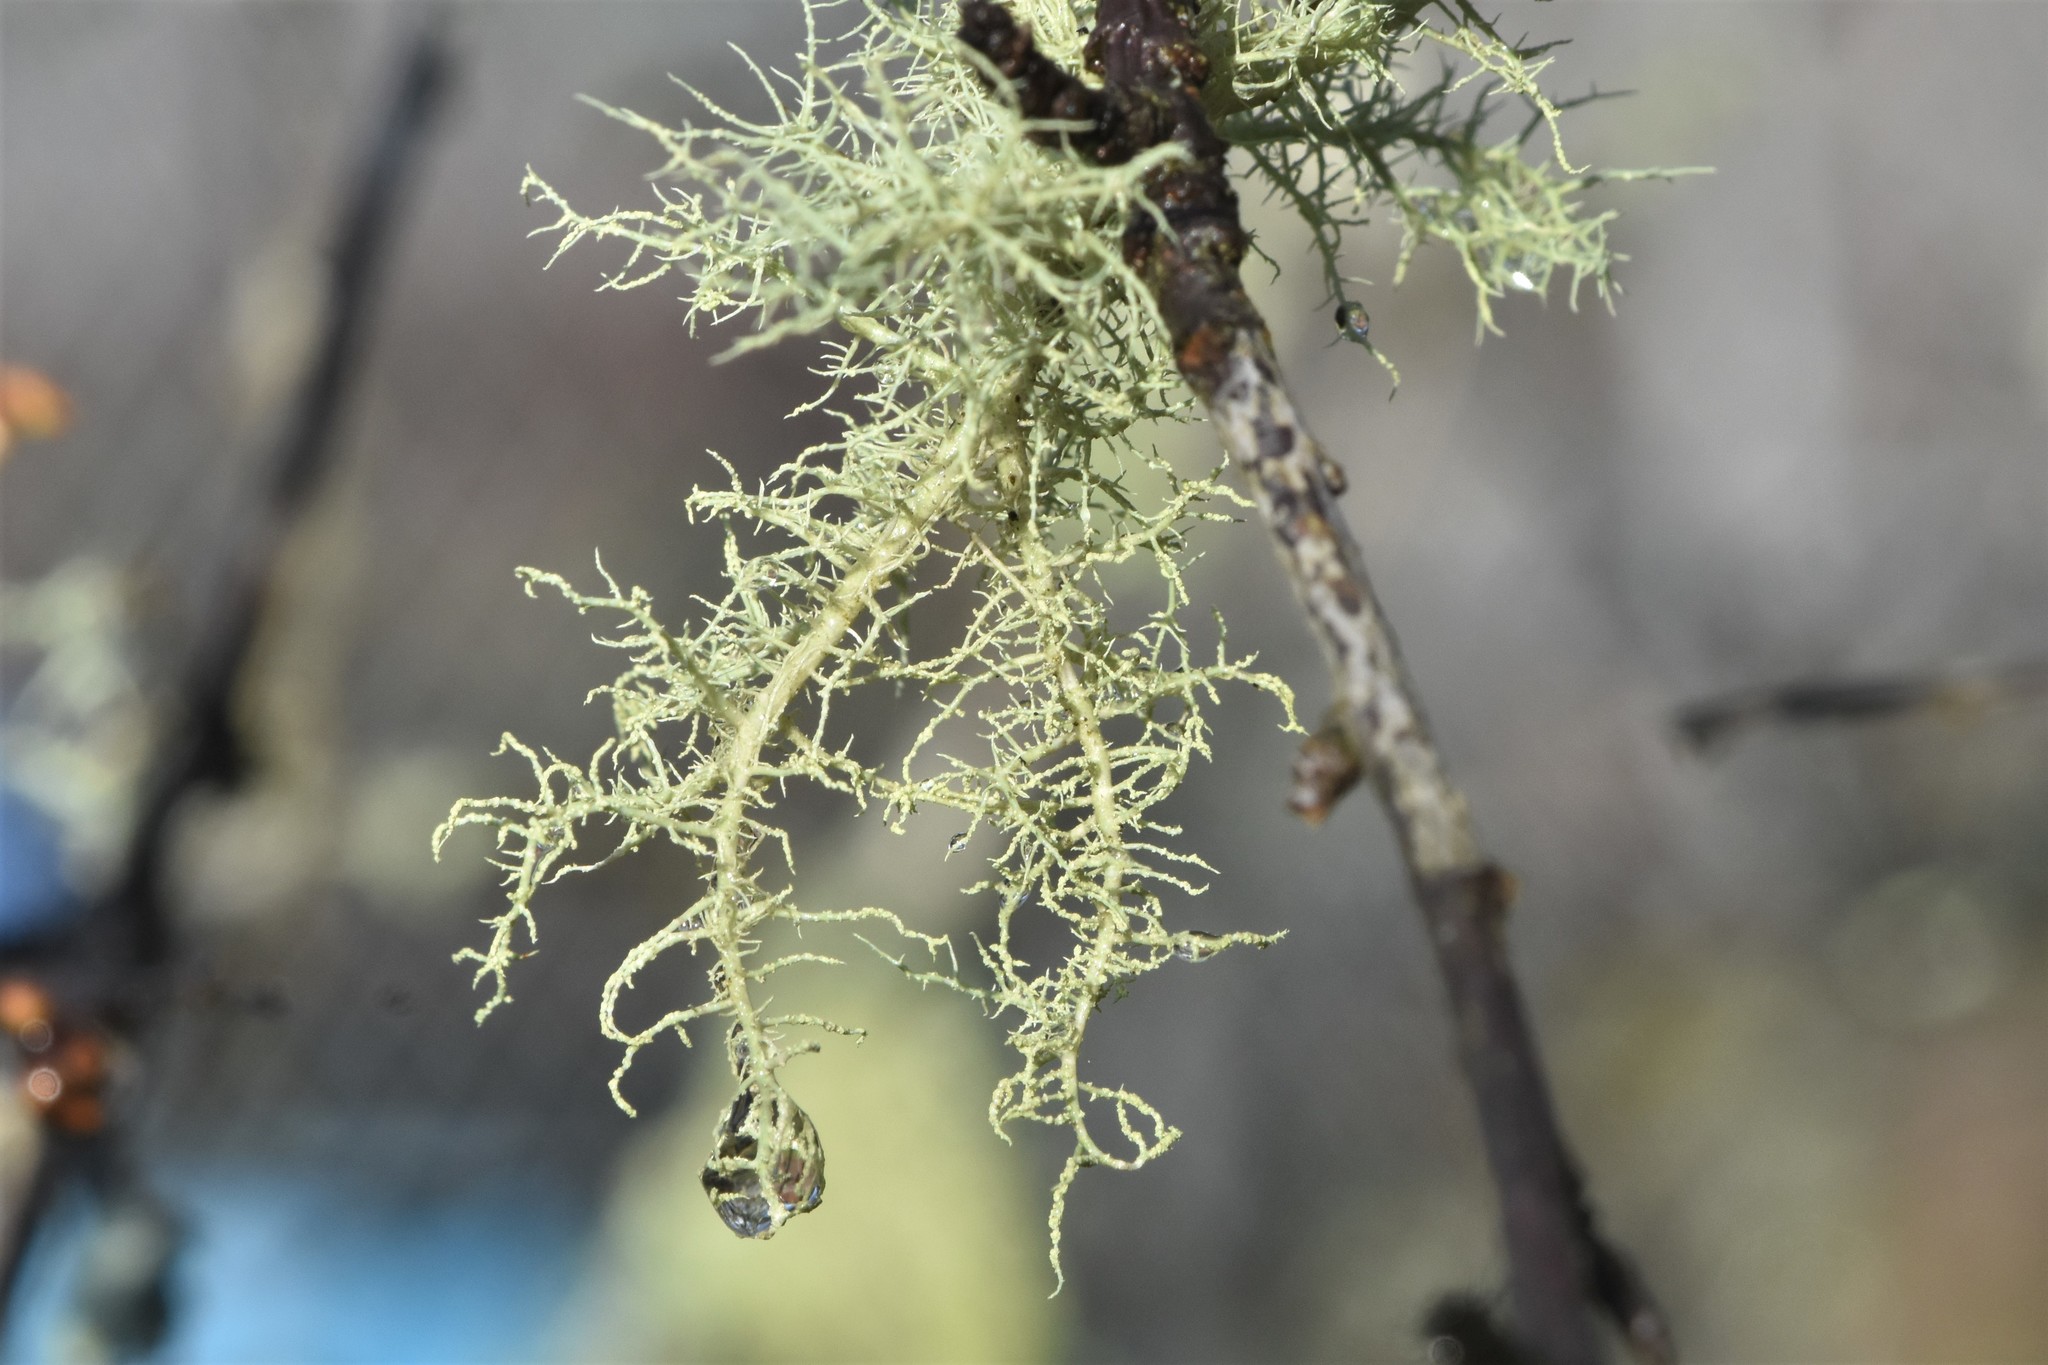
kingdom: Fungi
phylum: Ascomycota
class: Lecanoromycetes
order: Lecanorales
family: Parmeliaceae
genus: Usnea
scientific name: Usnea hirta
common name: Bristly beard lichen
